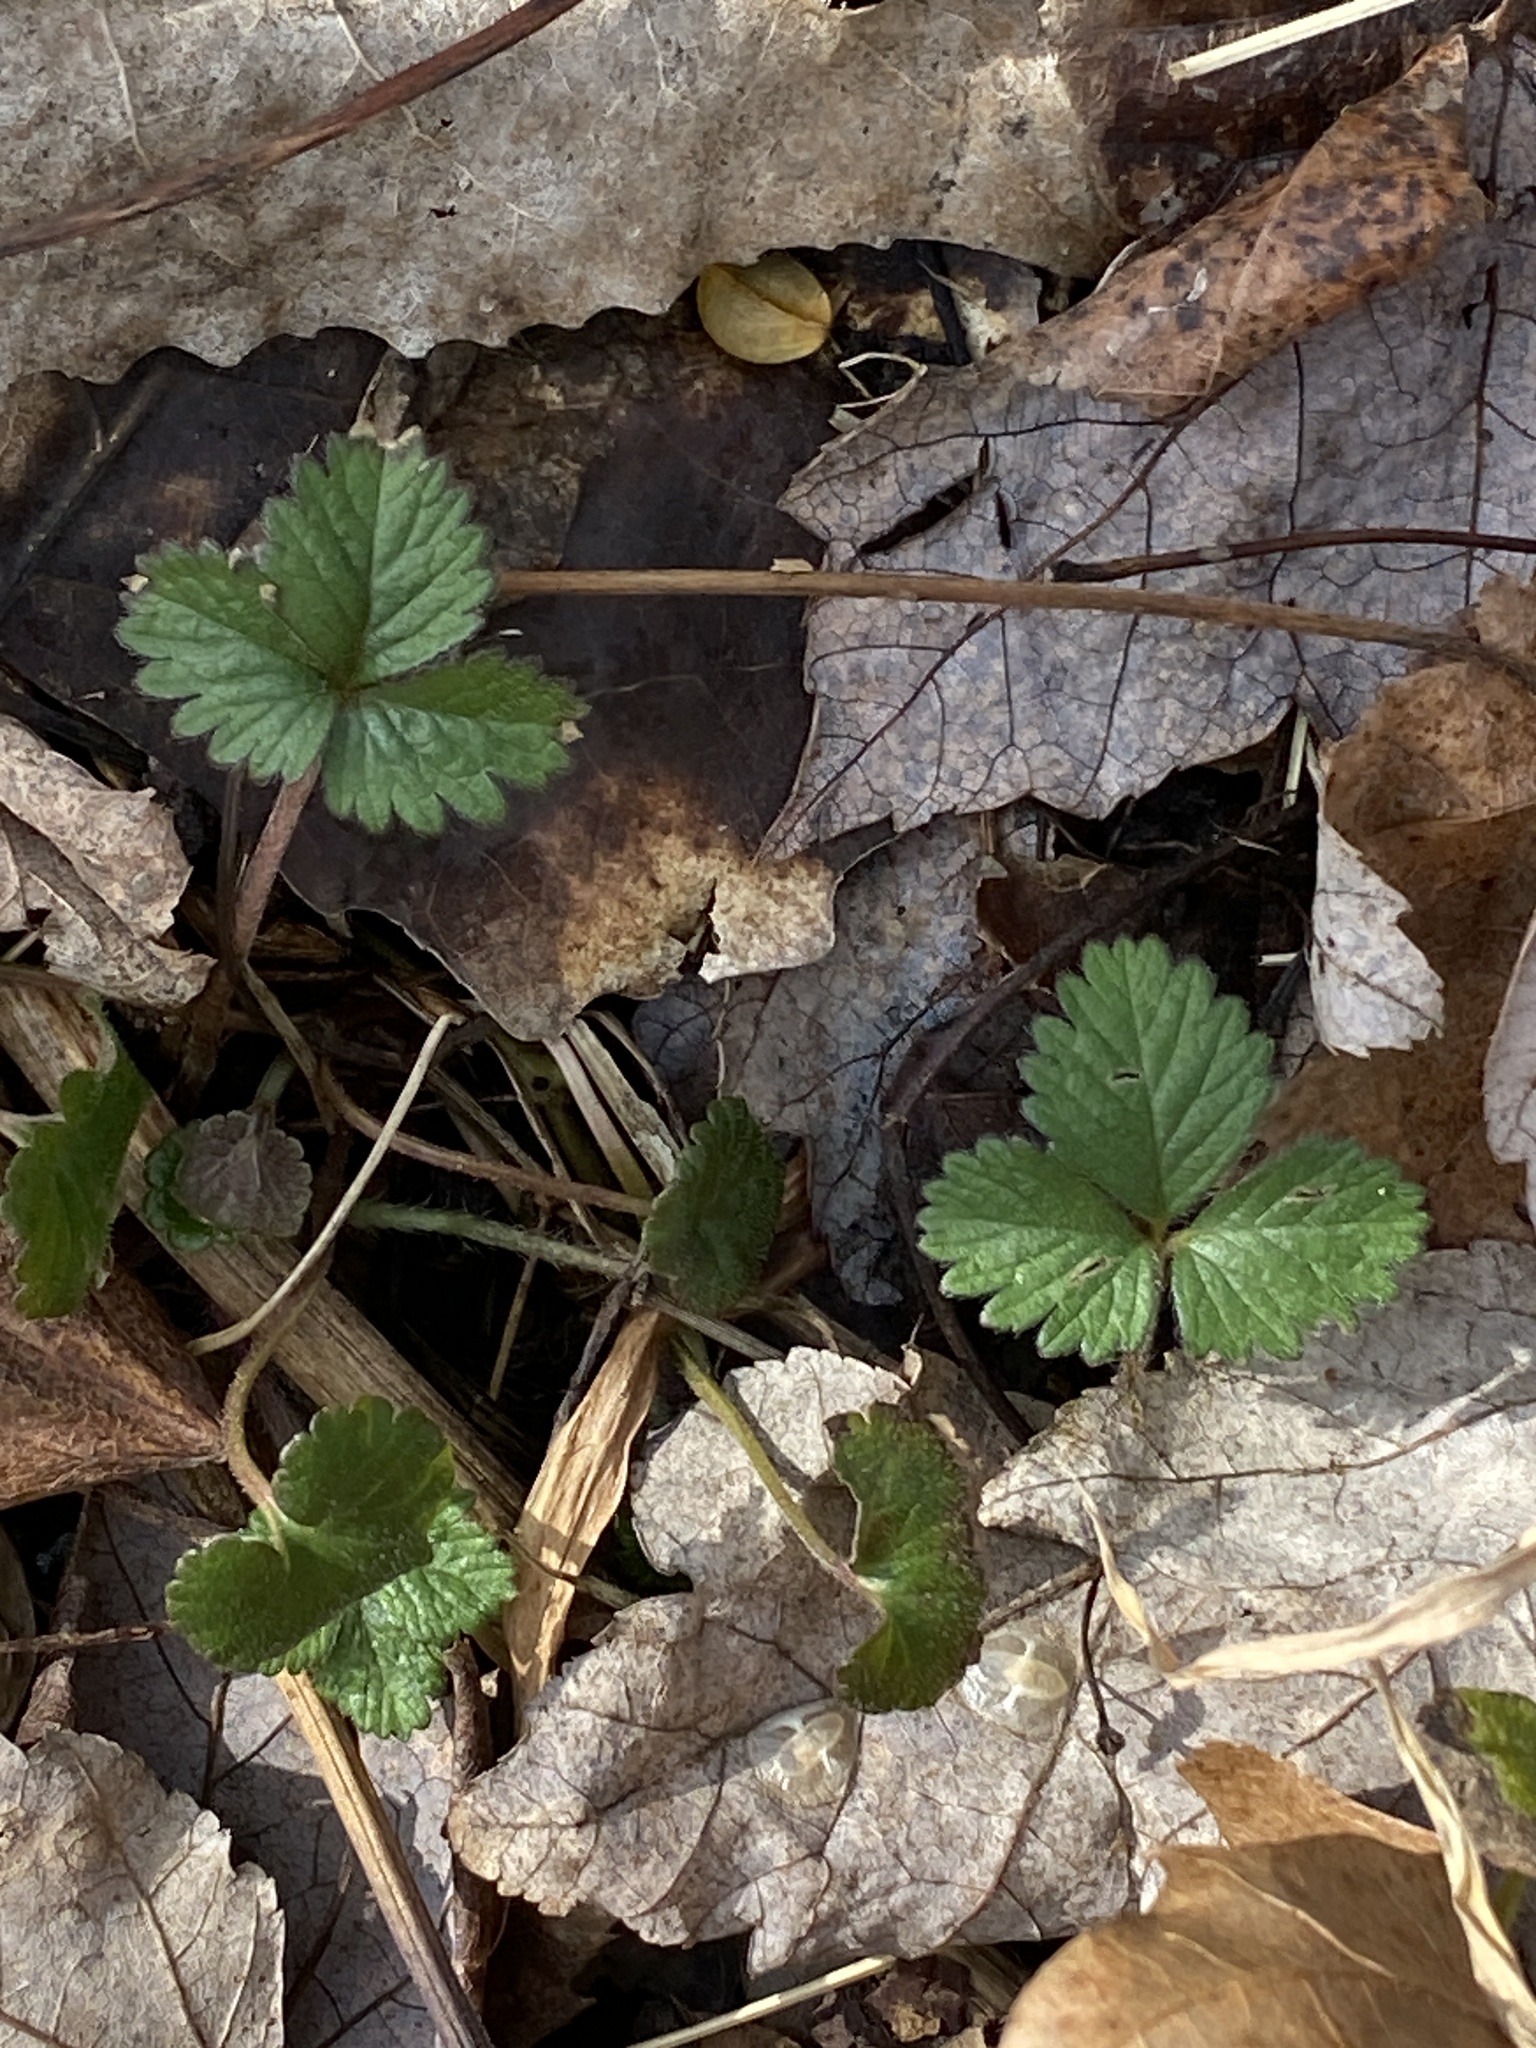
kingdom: Plantae
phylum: Tracheophyta
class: Magnoliopsida
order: Rosales
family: Rosaceae
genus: Potentilla
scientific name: Potentilla indica
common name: Yellow-flowered strawberry
